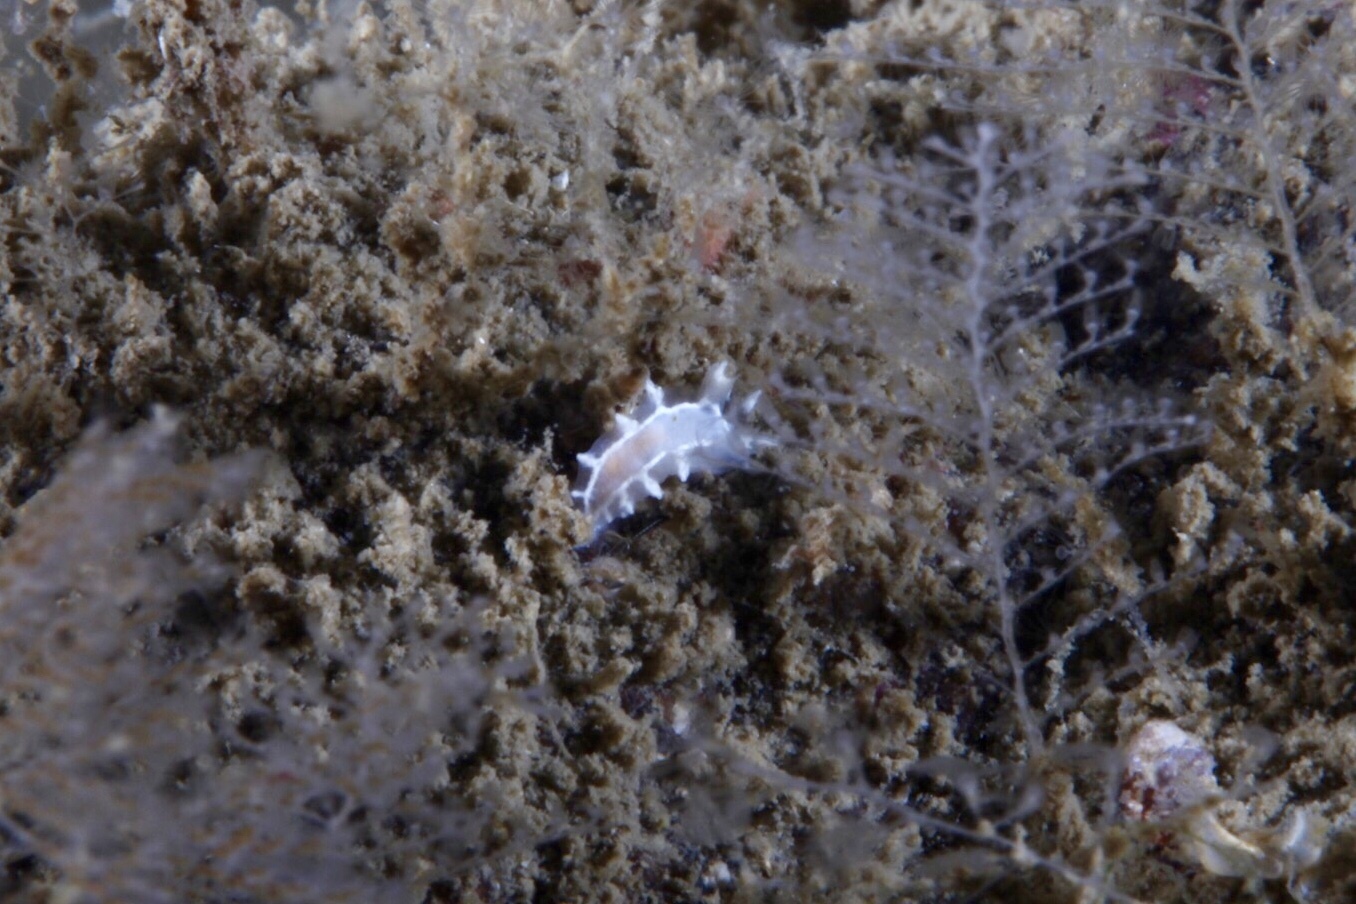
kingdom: Animalia
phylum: Mollusca
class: Gastropoda
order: Nudibranchia
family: Tritoniidae
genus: Duvaucelia
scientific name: Duvaucelia lineata
